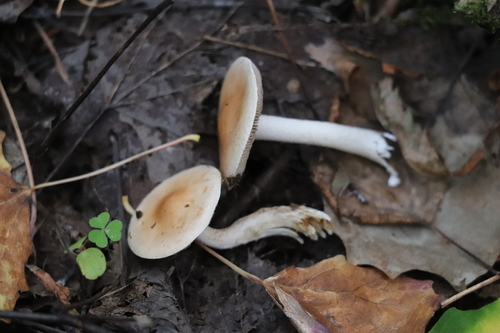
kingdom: Fungi
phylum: Basidiomycota
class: Agaricomycetes
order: Agaricales
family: Hymenogastraceae
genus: Hebeloma
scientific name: Hebeloma leucosarx
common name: Birch poisonpie
